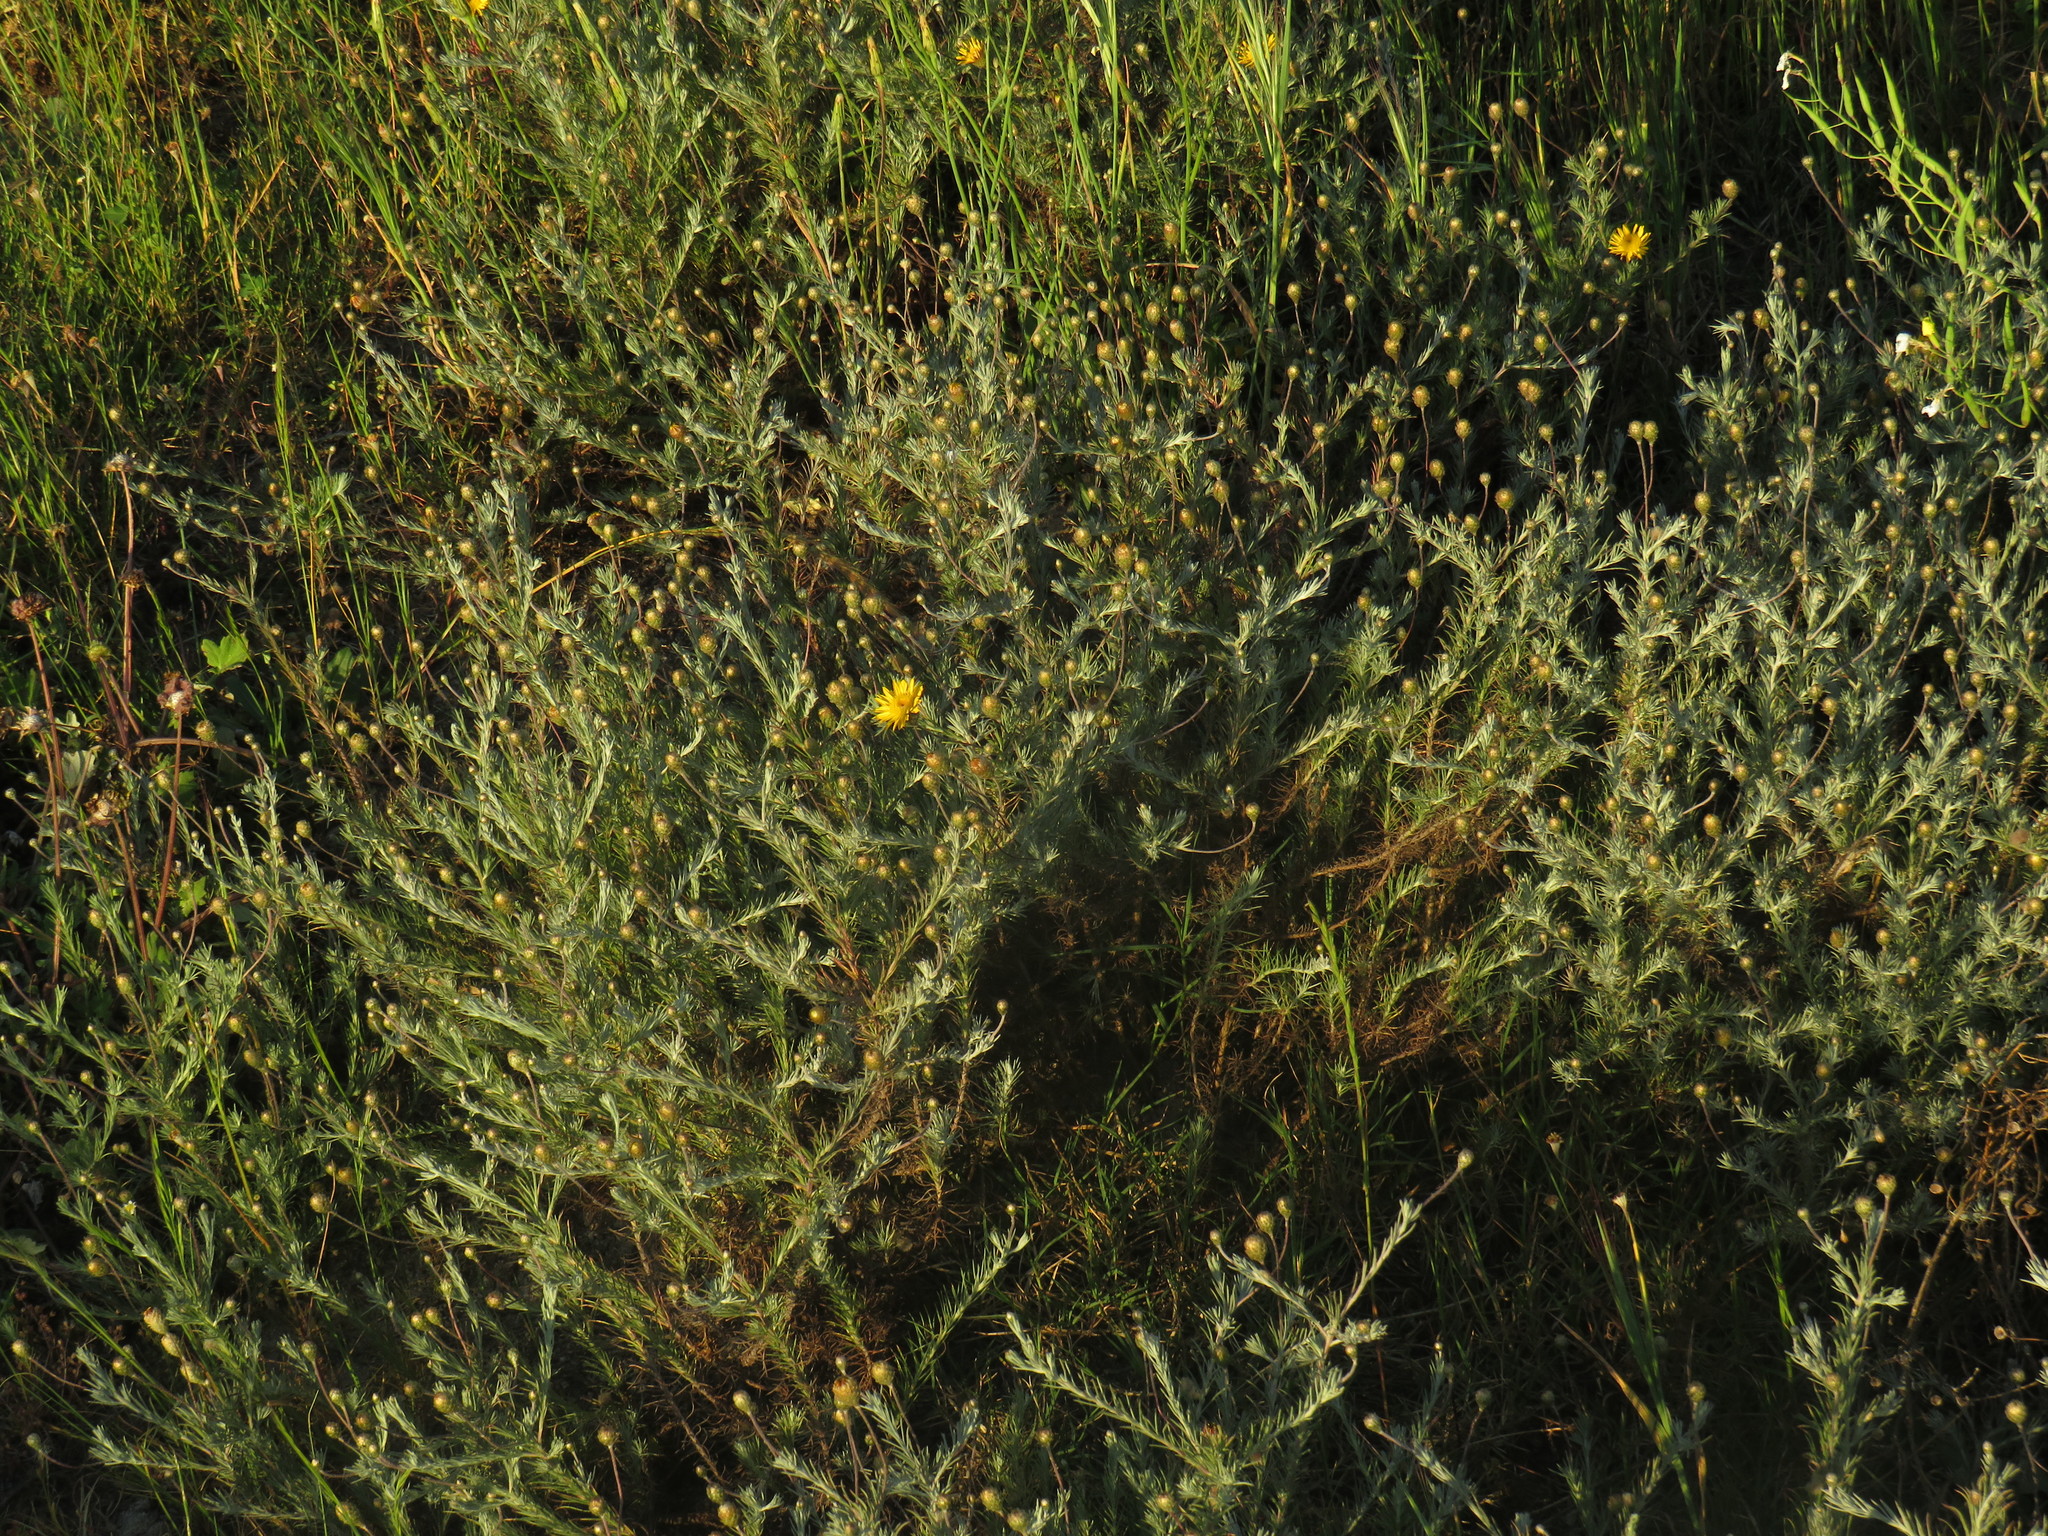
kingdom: Plantae
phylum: Tracheophyta
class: Magnoliopsida
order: Asterales
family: Asteraceae
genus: Leysera
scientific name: Leysera gnaphalodes
